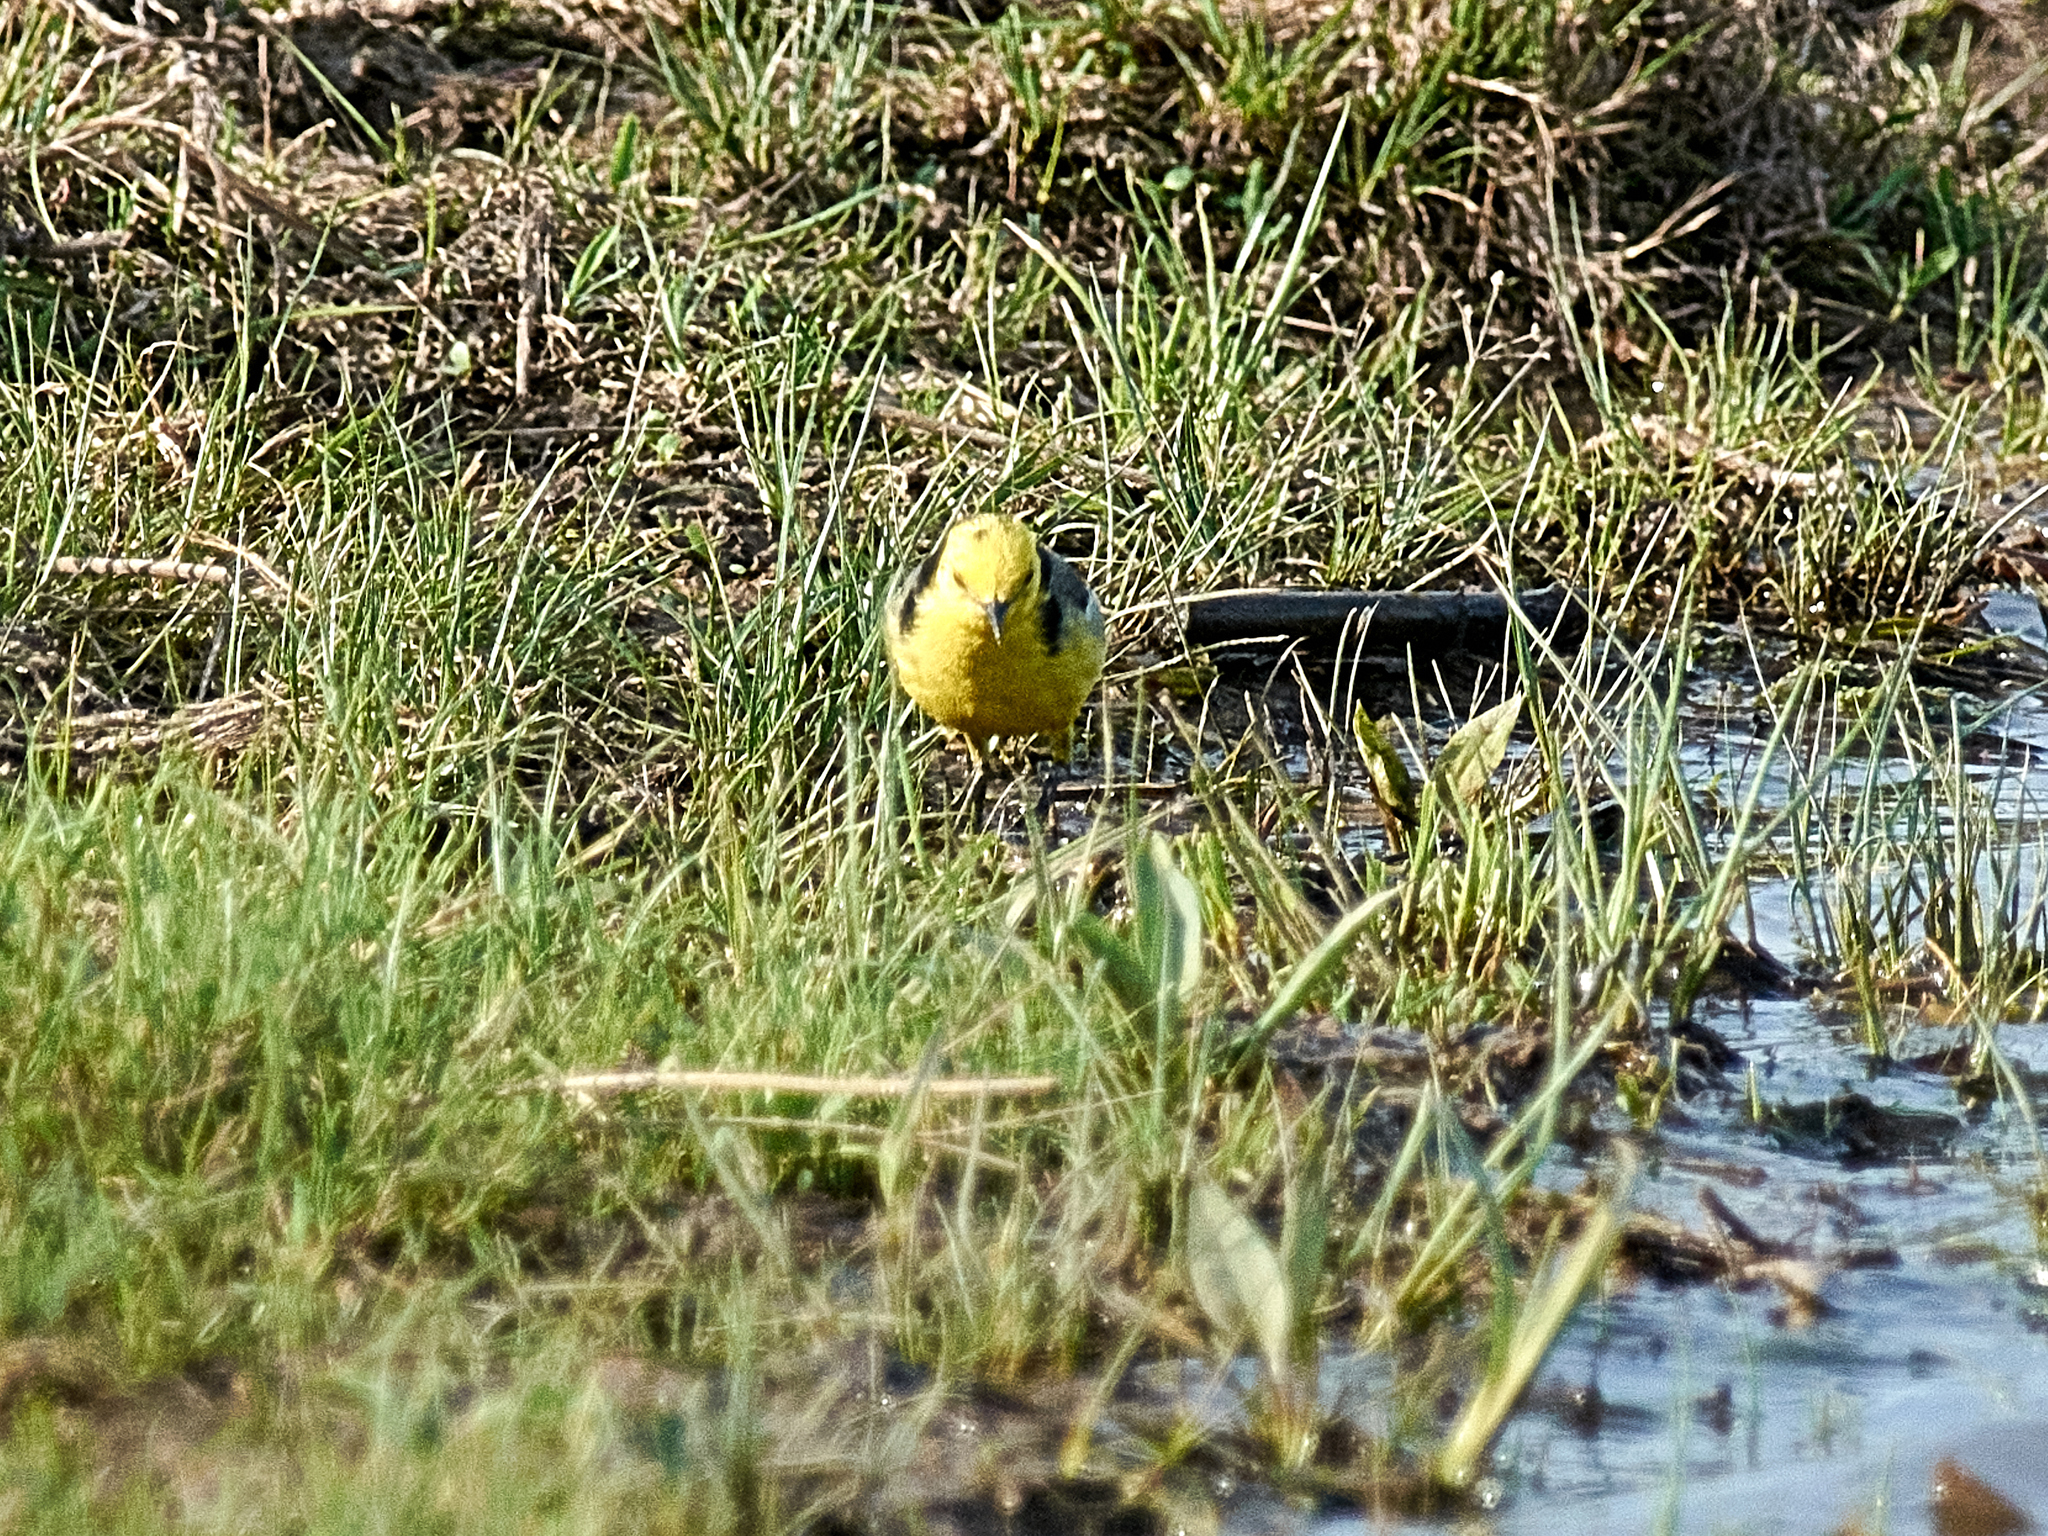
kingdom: Animalia
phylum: Chordata
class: Aves
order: Passeriformes
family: Motacillidae
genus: Motacilla
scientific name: Motacilla citreola
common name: Citrine wagtail
